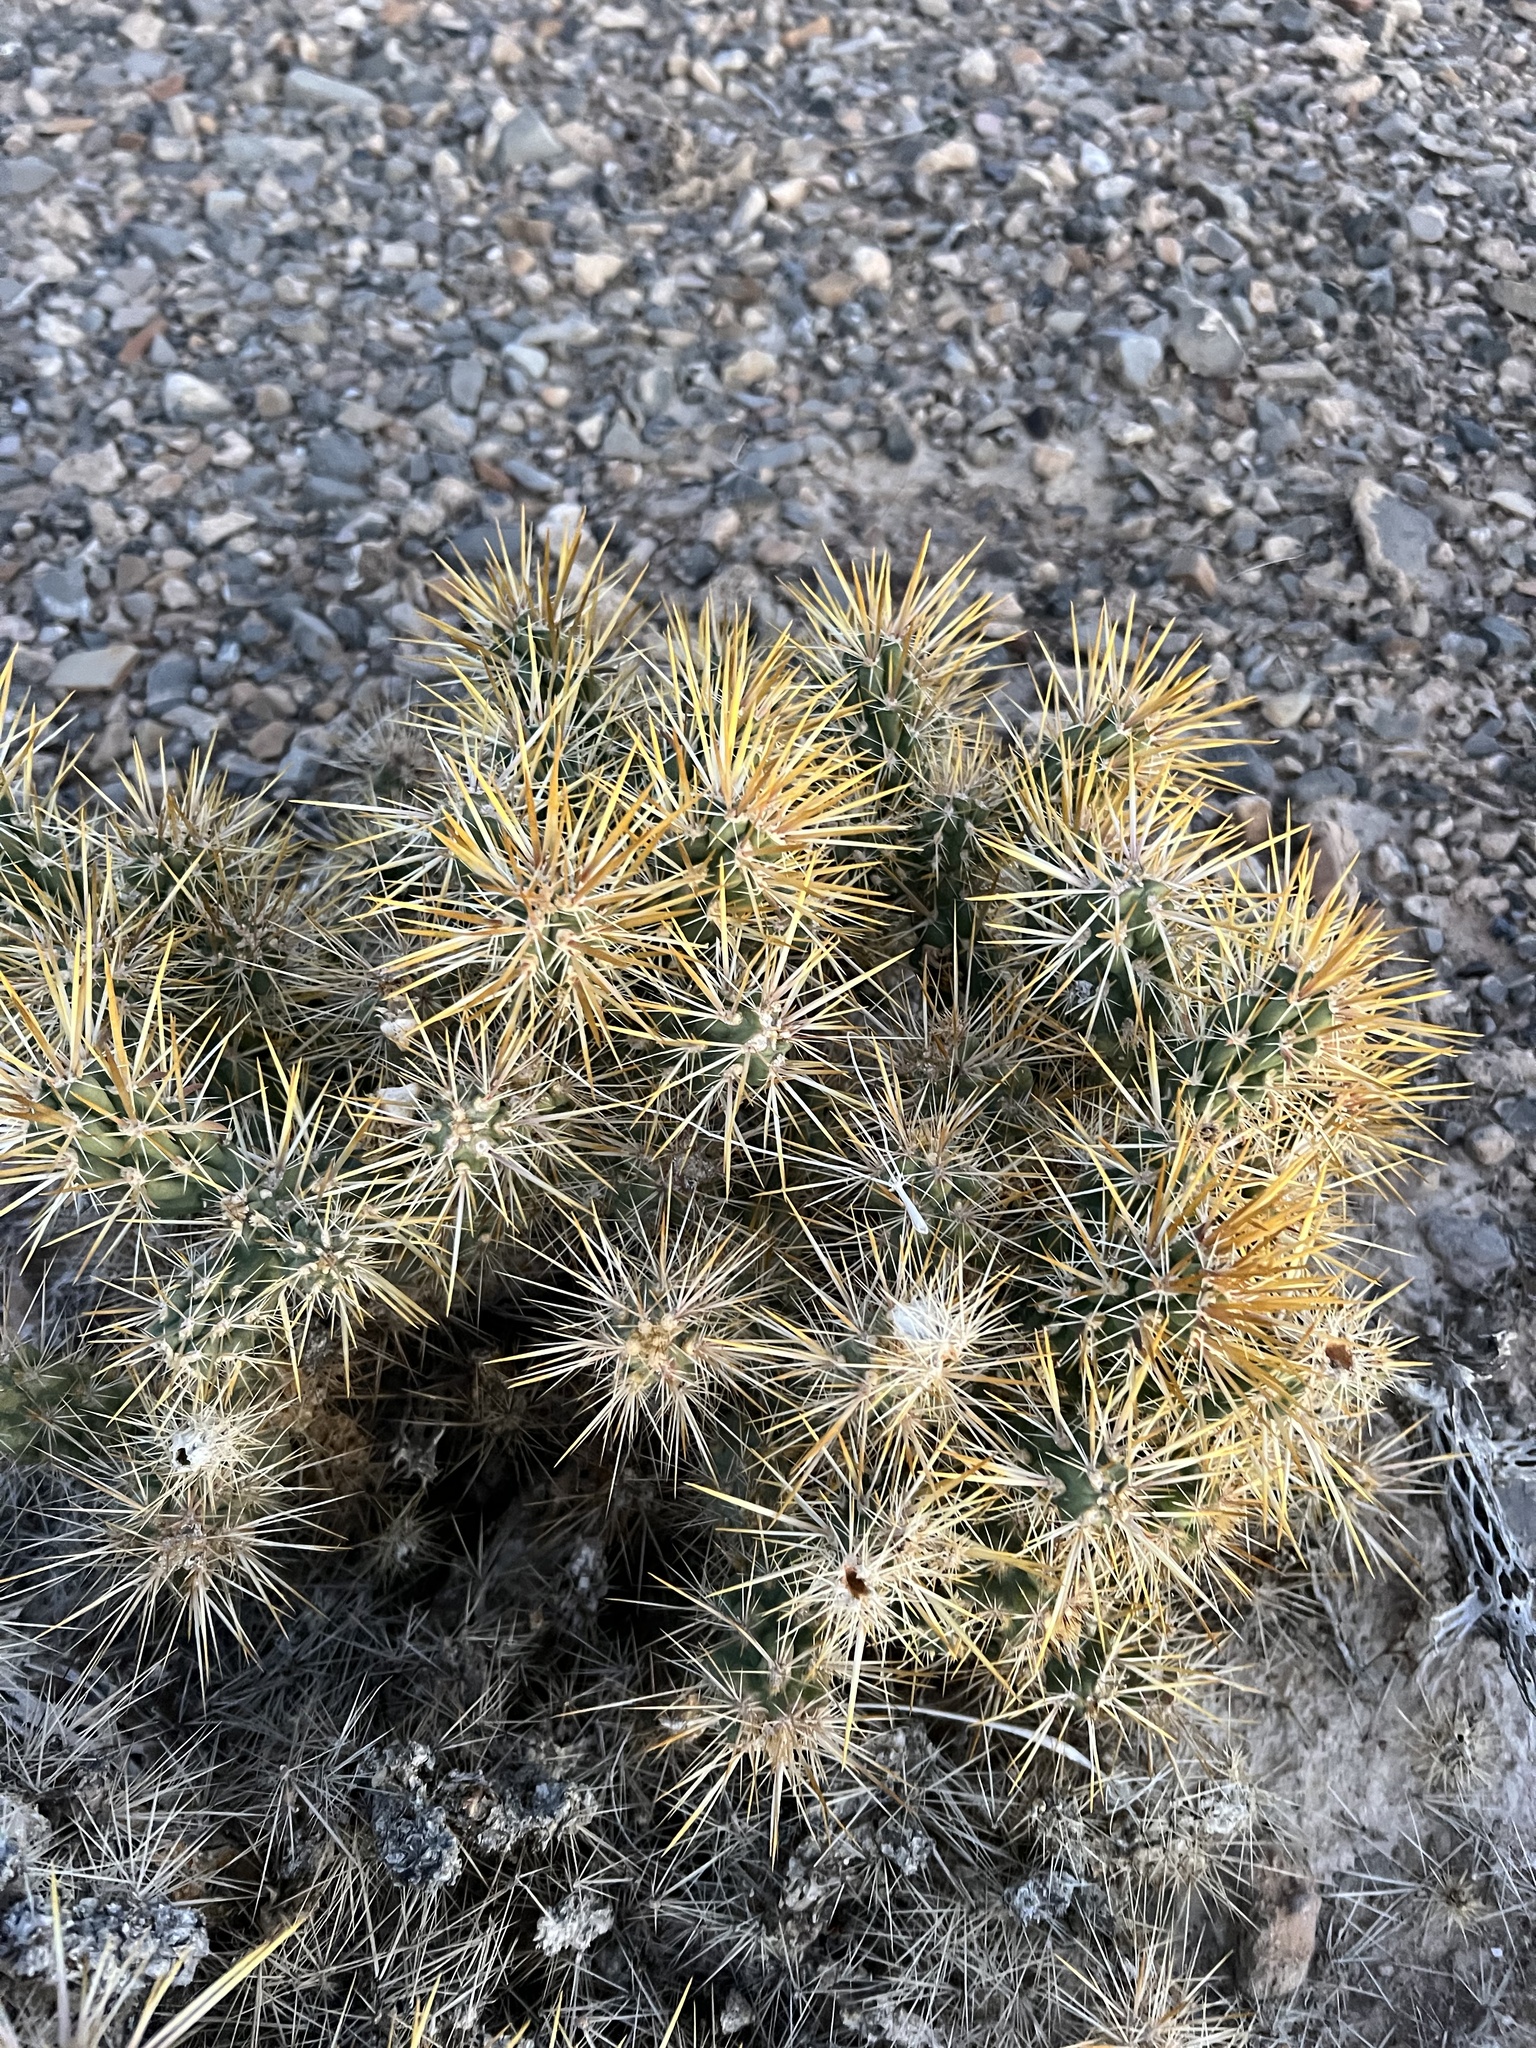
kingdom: Plantae
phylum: Tracheophyta
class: Magnoliopsida
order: Caryophyllales
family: Cactaceae
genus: Cylindropuntia
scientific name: Cylindropuntia echinocarpa
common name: Ground cholla
